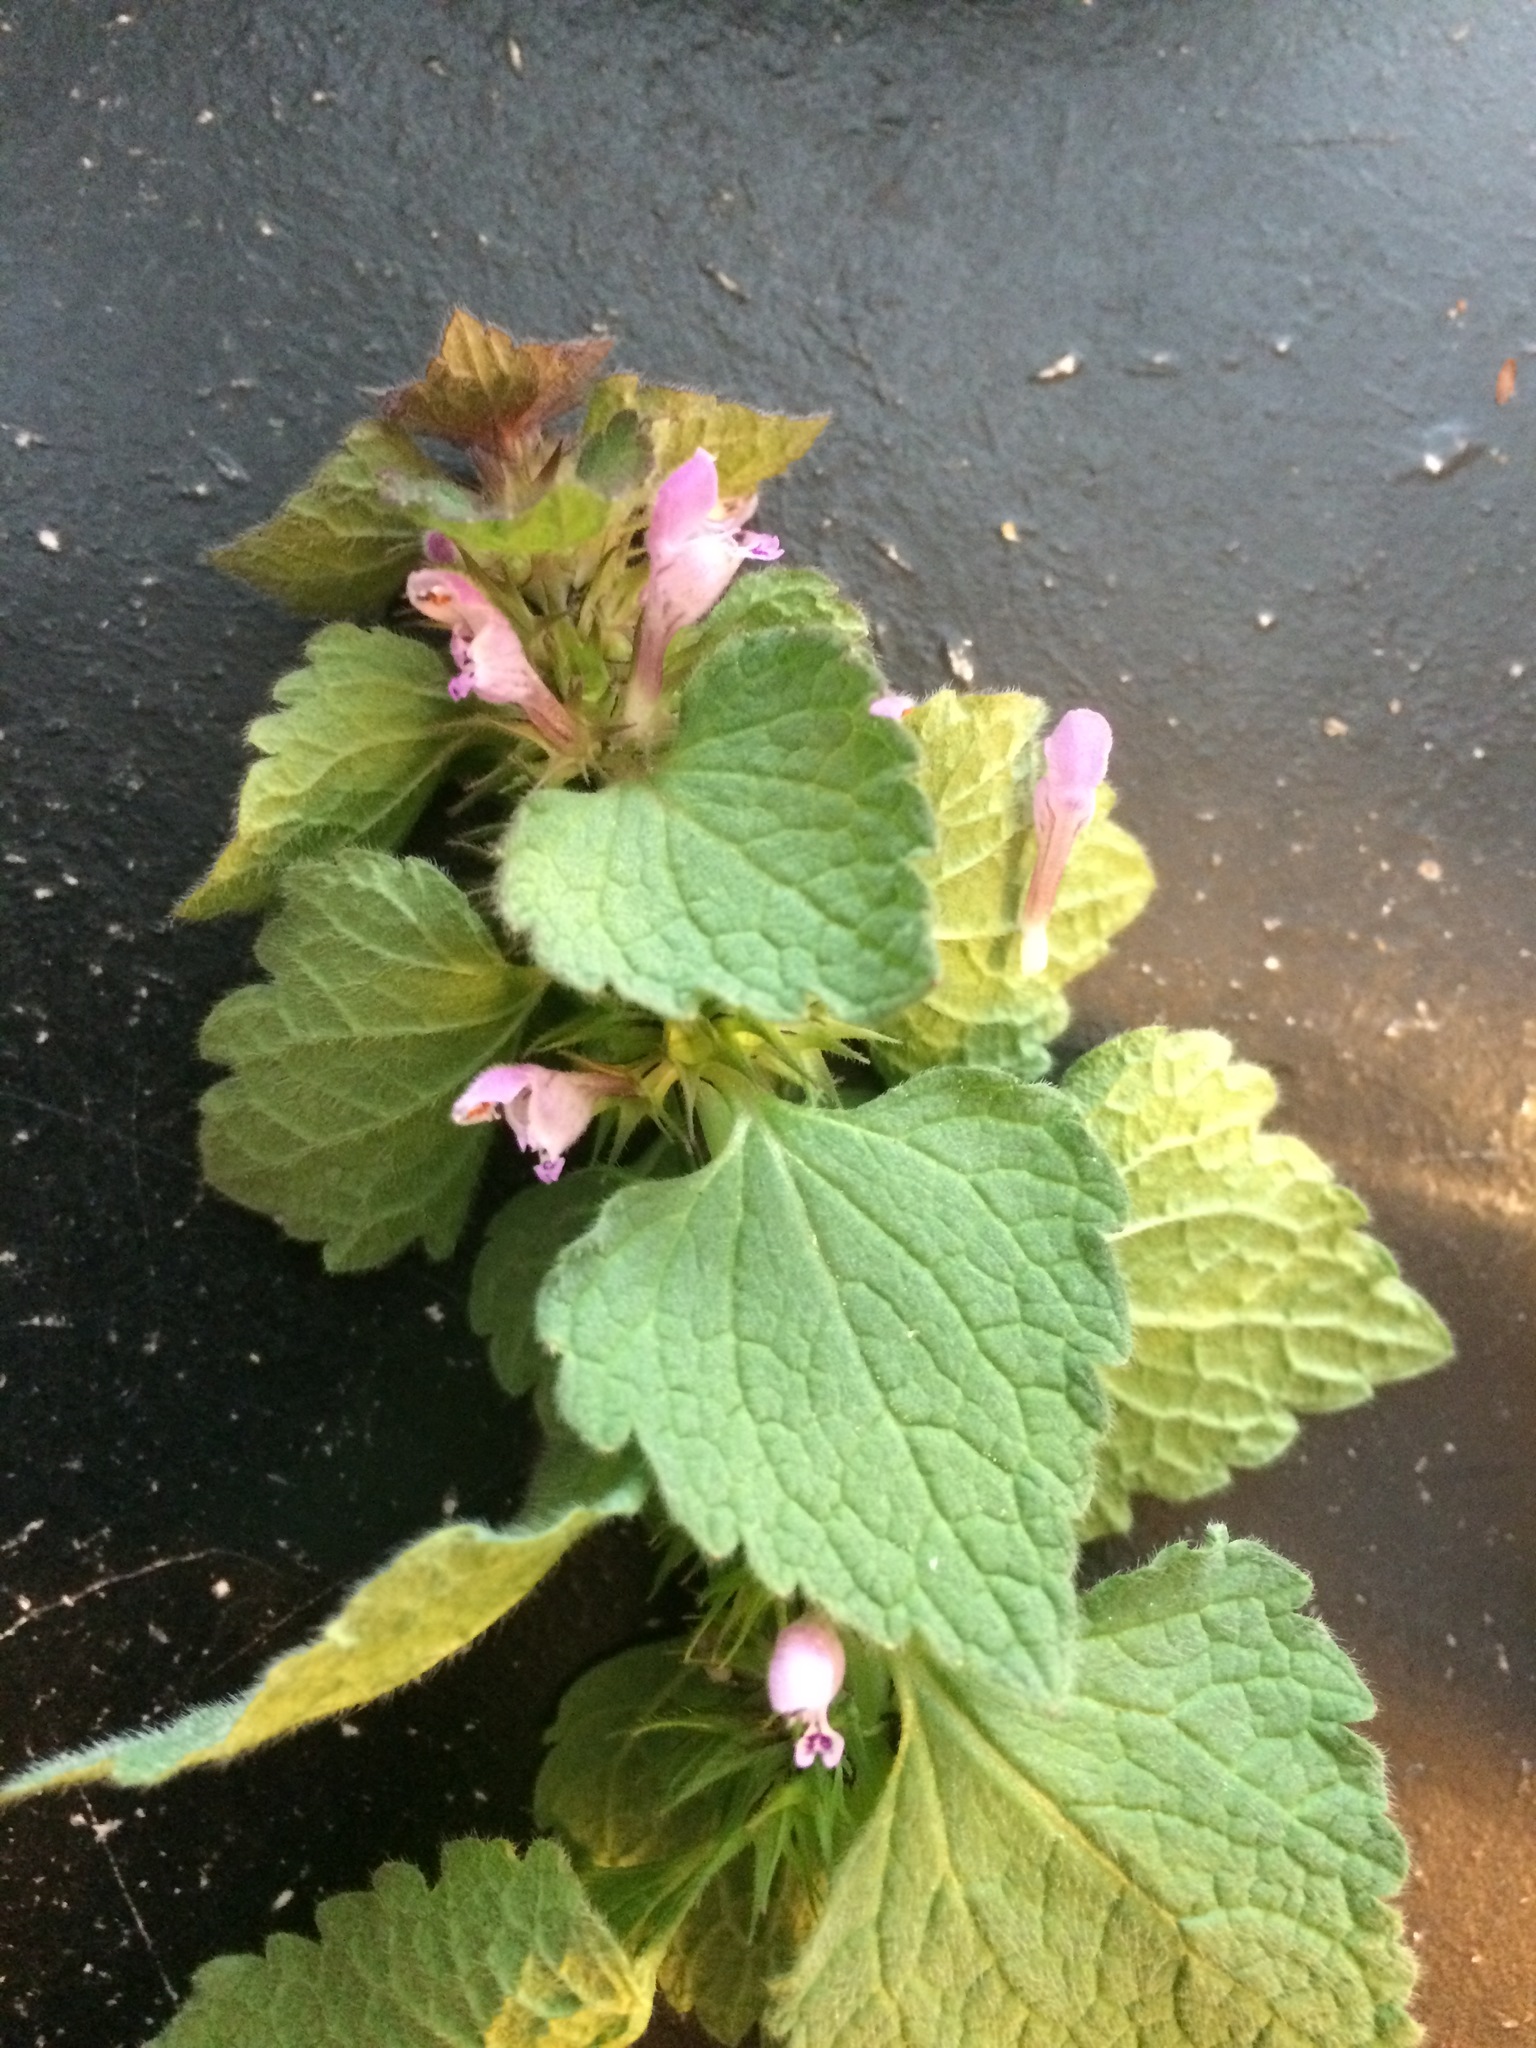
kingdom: Plantae
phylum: Tracheophyta
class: Magnoliopsida
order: Lamiales
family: Lamiaceae
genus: Lamium
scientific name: Lamium purpureum
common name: Red dead-nettle
